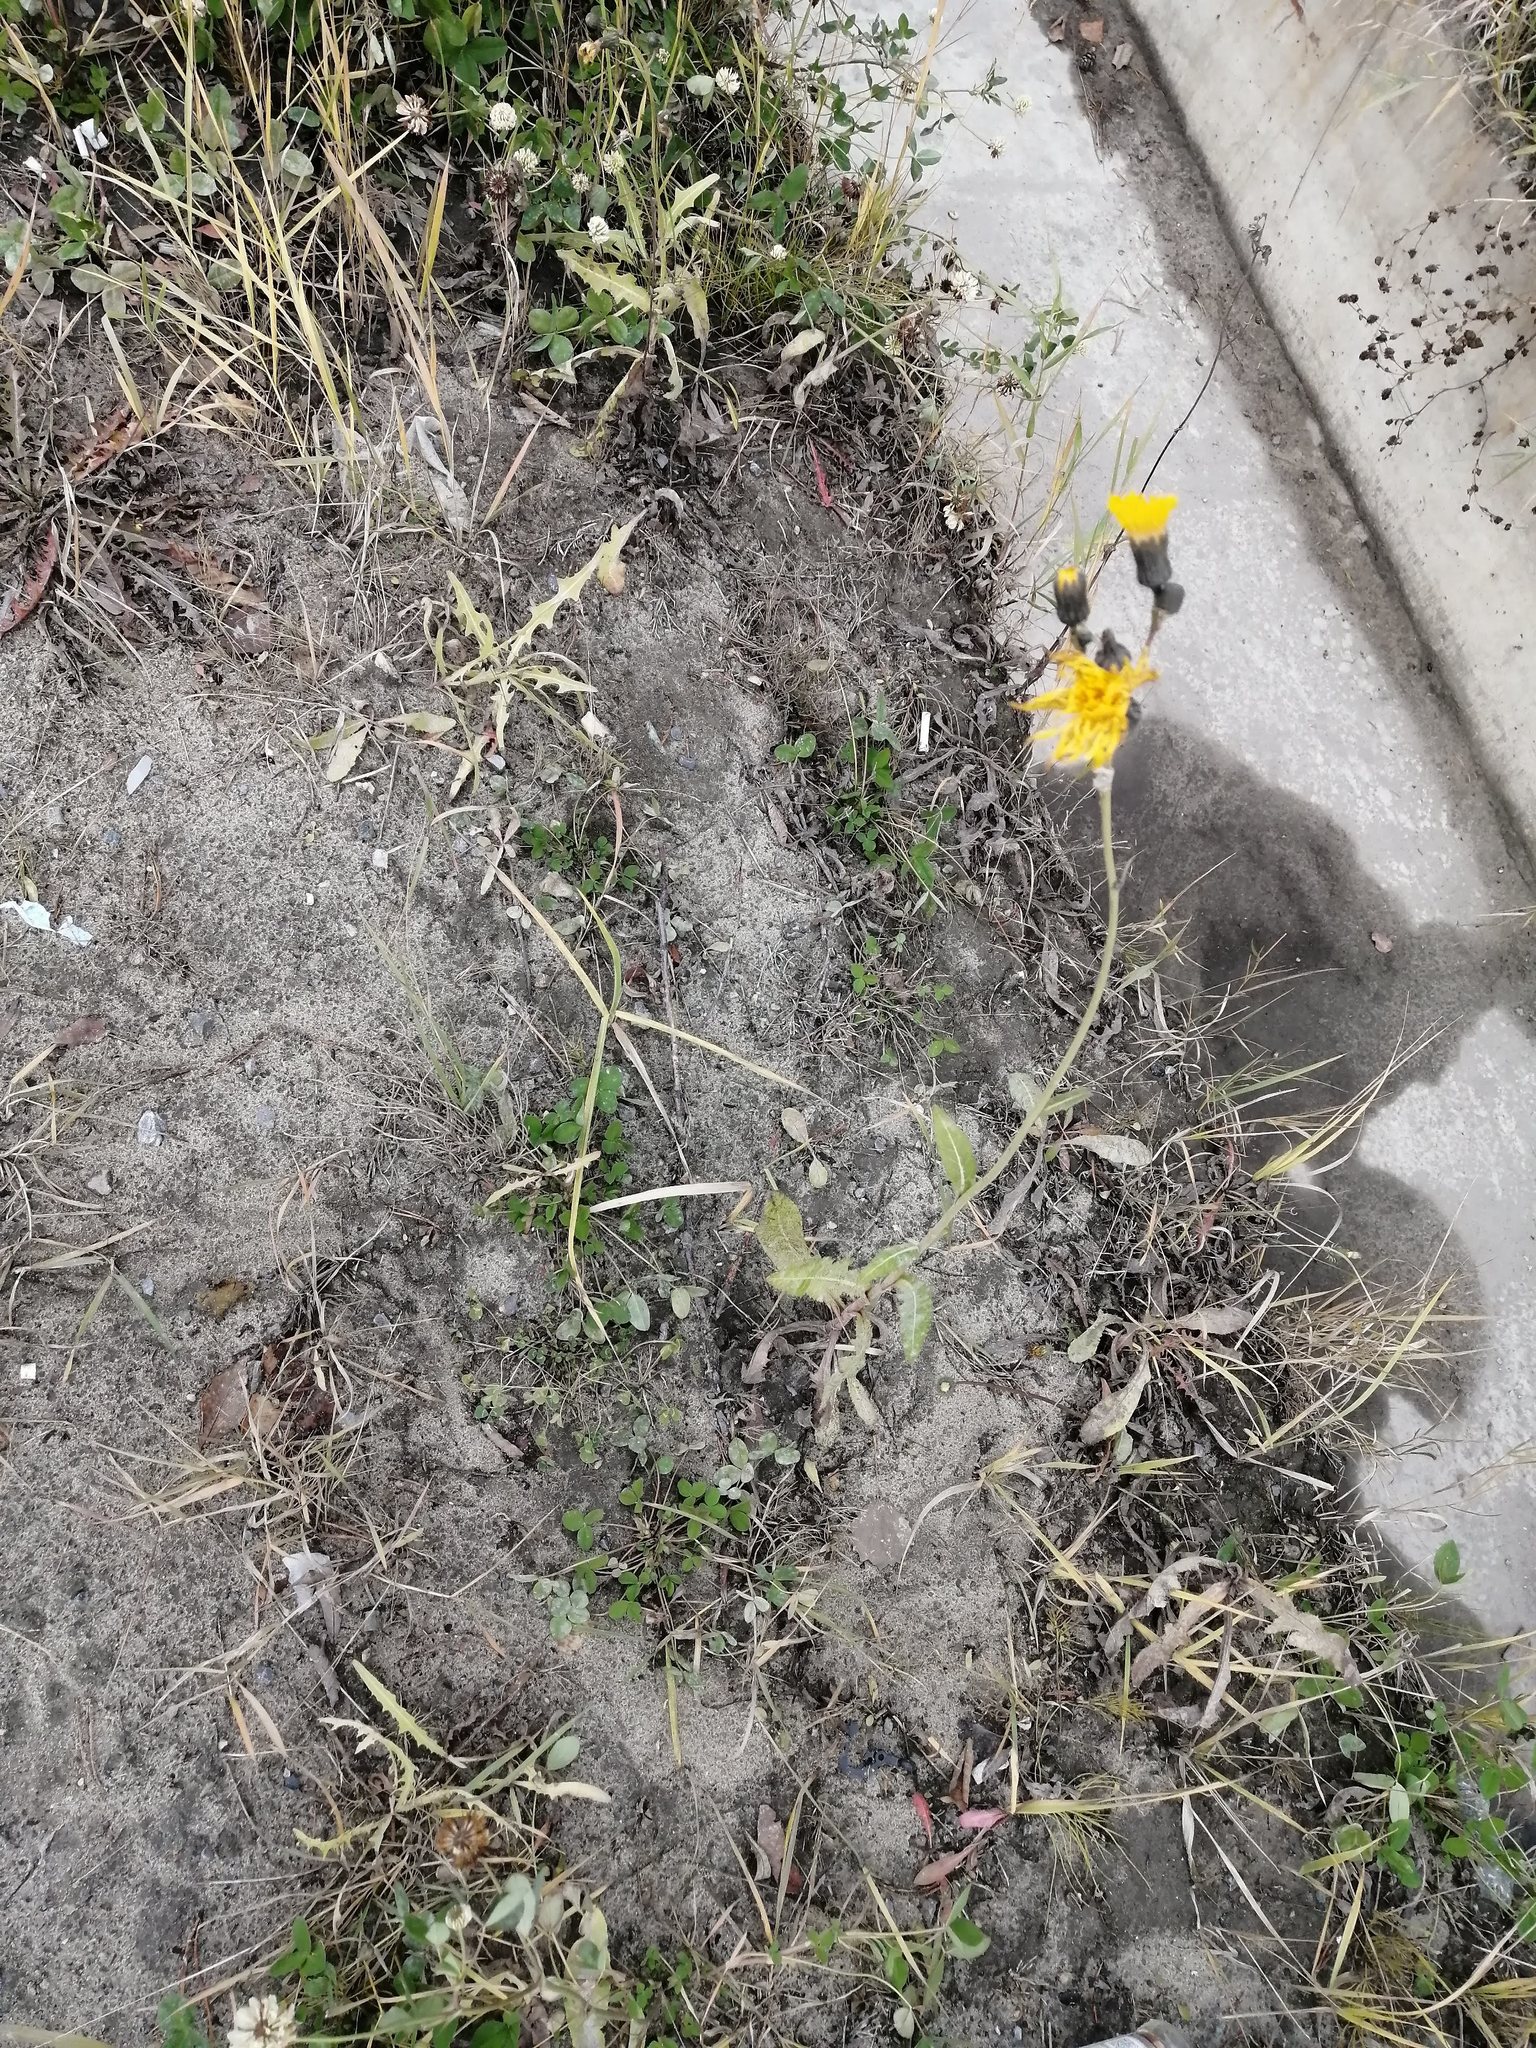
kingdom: Plantae
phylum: Tracheophyta
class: Magnoliopsida
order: Asterales
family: Asteraceae
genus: Sonchus
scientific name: Sonchus arvensis
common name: Perennial sow-thistle
